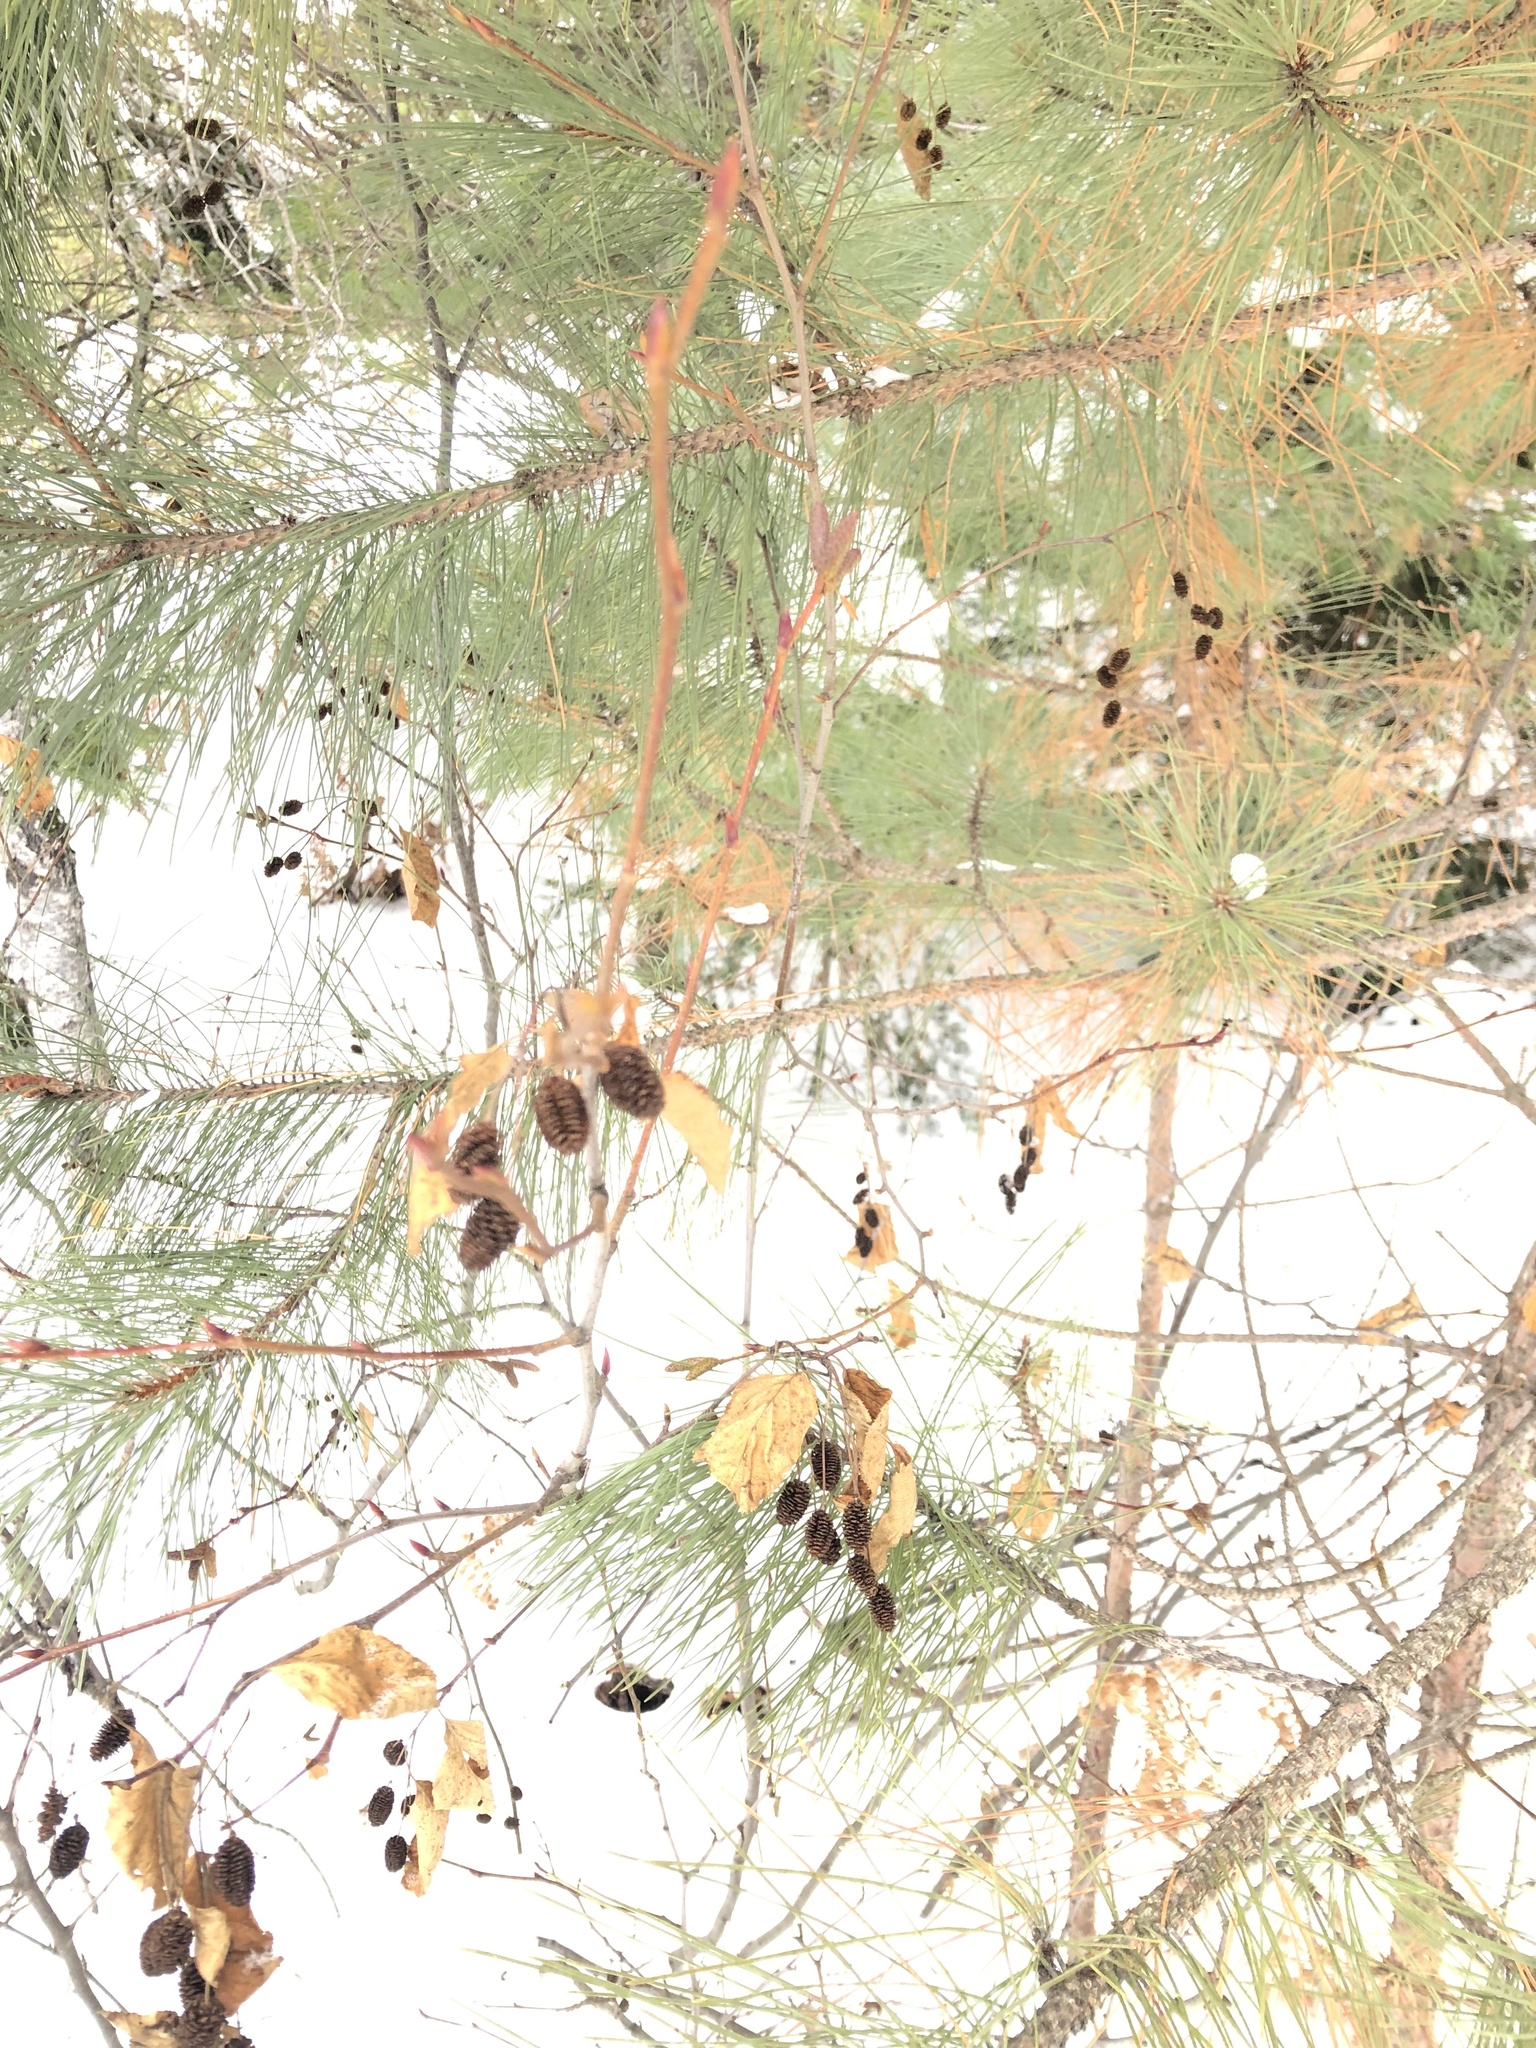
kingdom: Plantae
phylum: Tracheophyta
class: Magnoliopsida
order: Fagales
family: Betulaceae
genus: Alnus
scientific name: Alnus alnobetula
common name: Green alder
